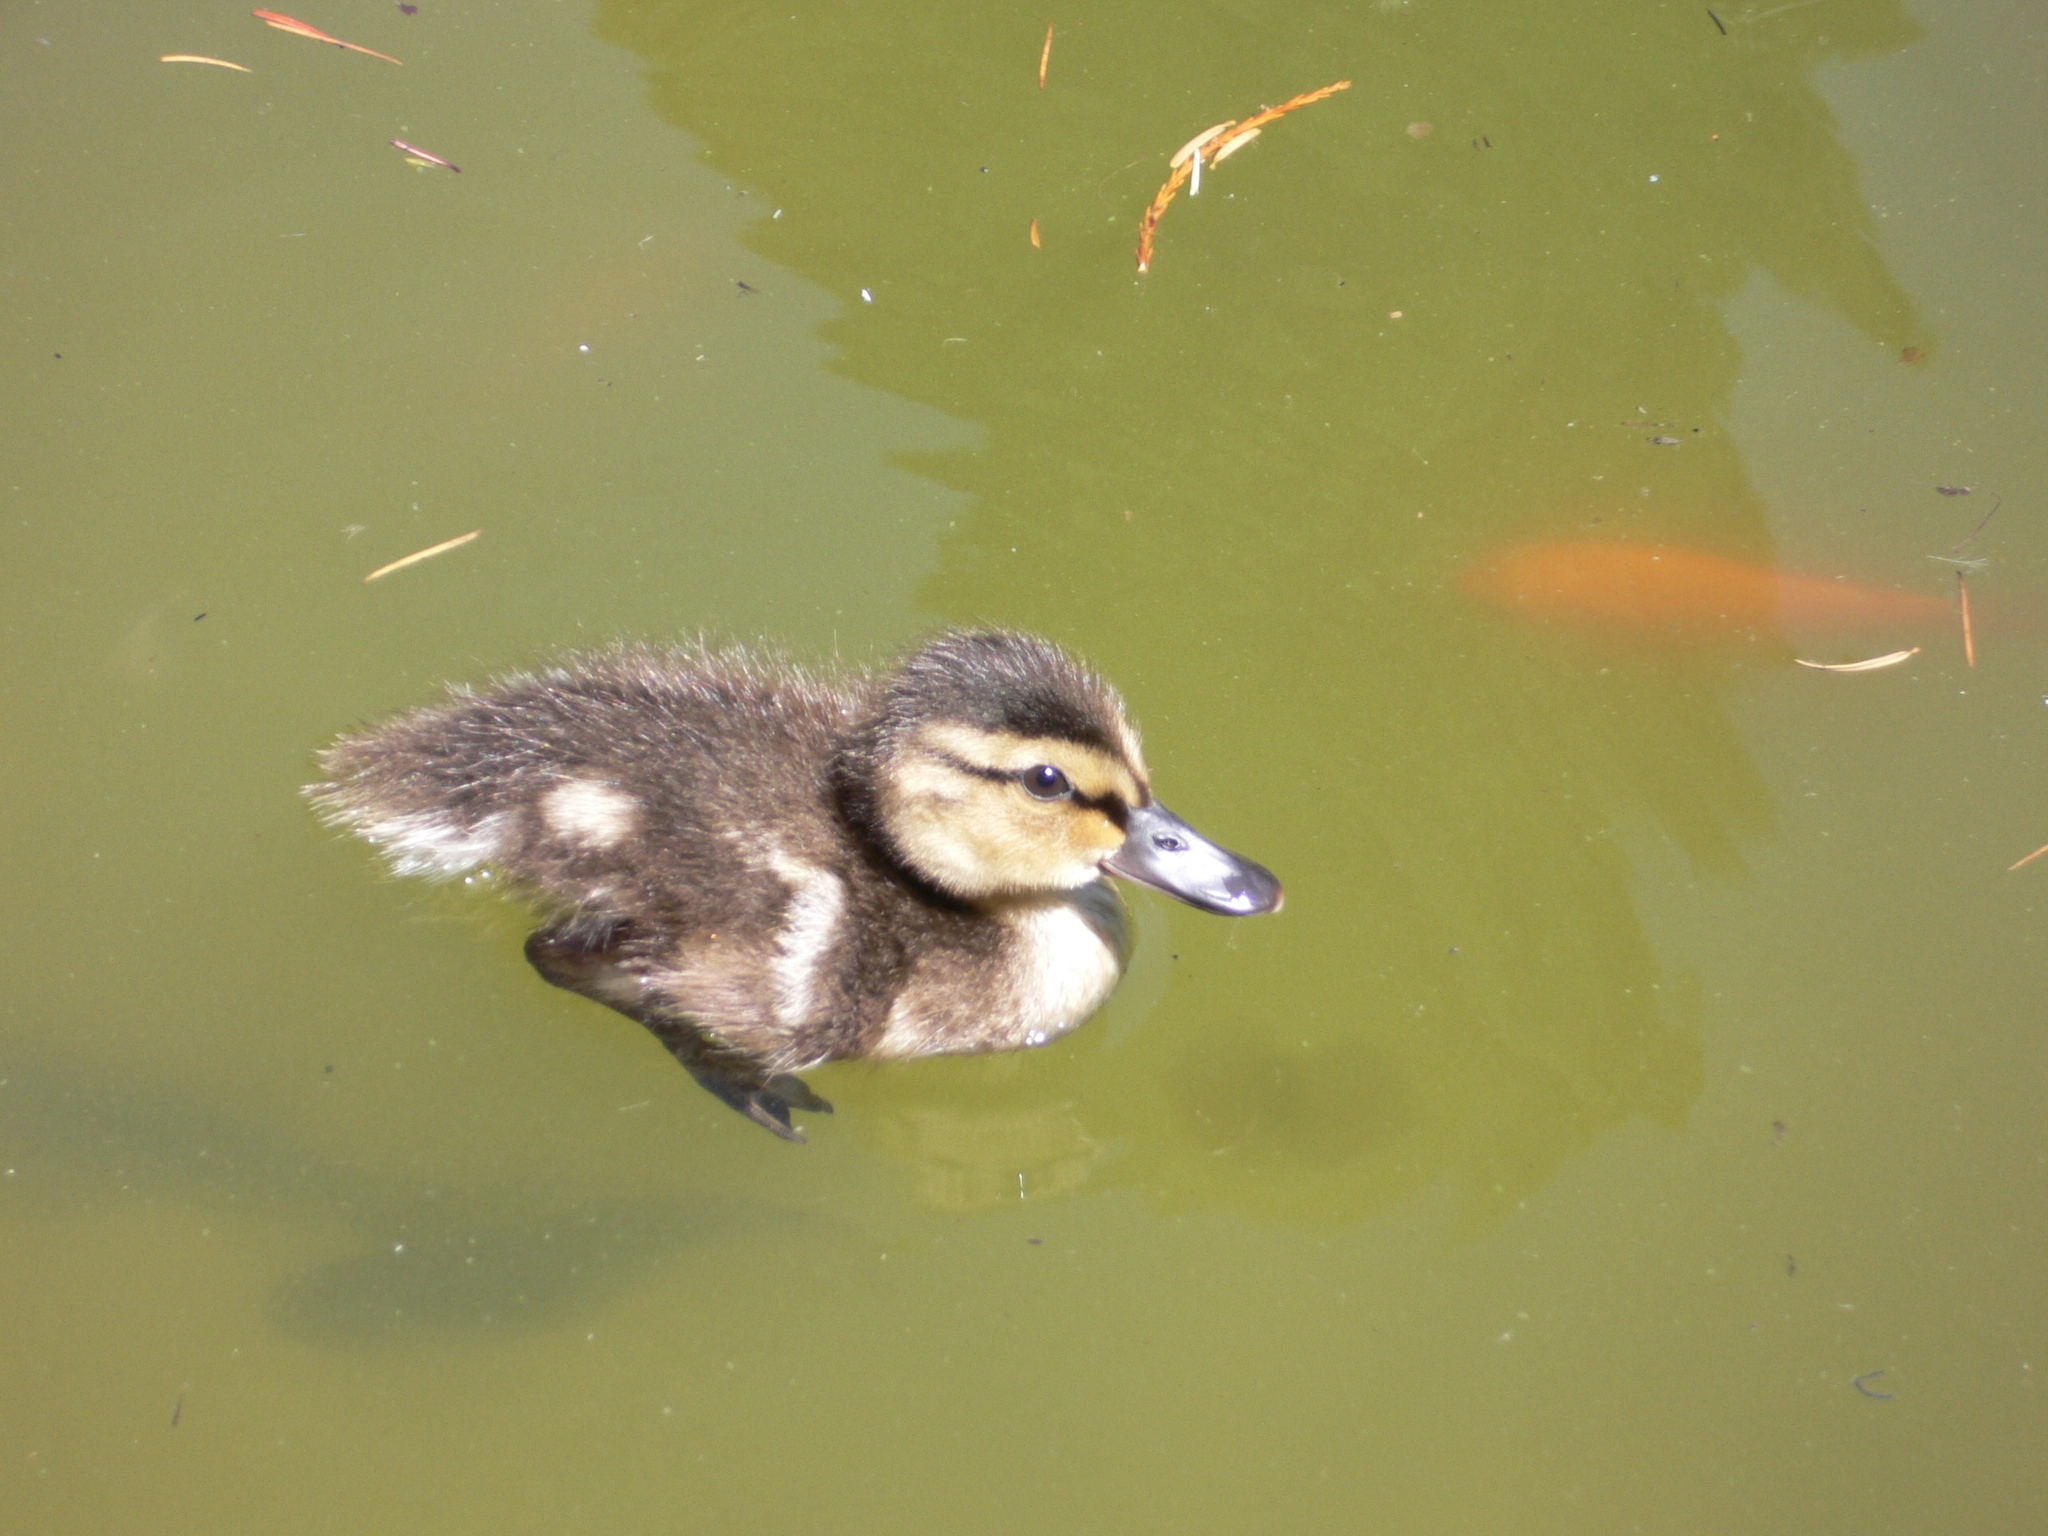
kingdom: Animalia
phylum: Chordata
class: Aves
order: Anseriformes
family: Anatidae
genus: Anas
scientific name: Anas platyrhynchos
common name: Mallard
